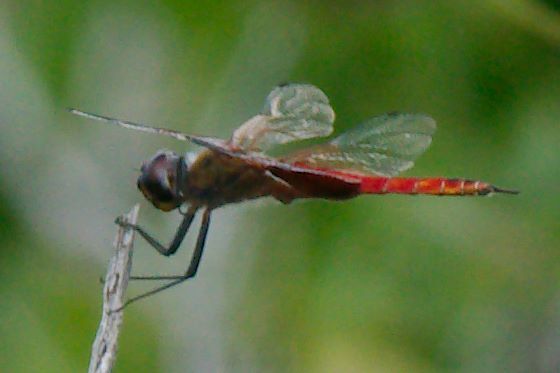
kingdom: Animalia
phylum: Arthropoda
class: Insecta
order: Odonata
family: Libellulidae
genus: Tramea
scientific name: Tramea insularis
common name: Antillean saddlebags
